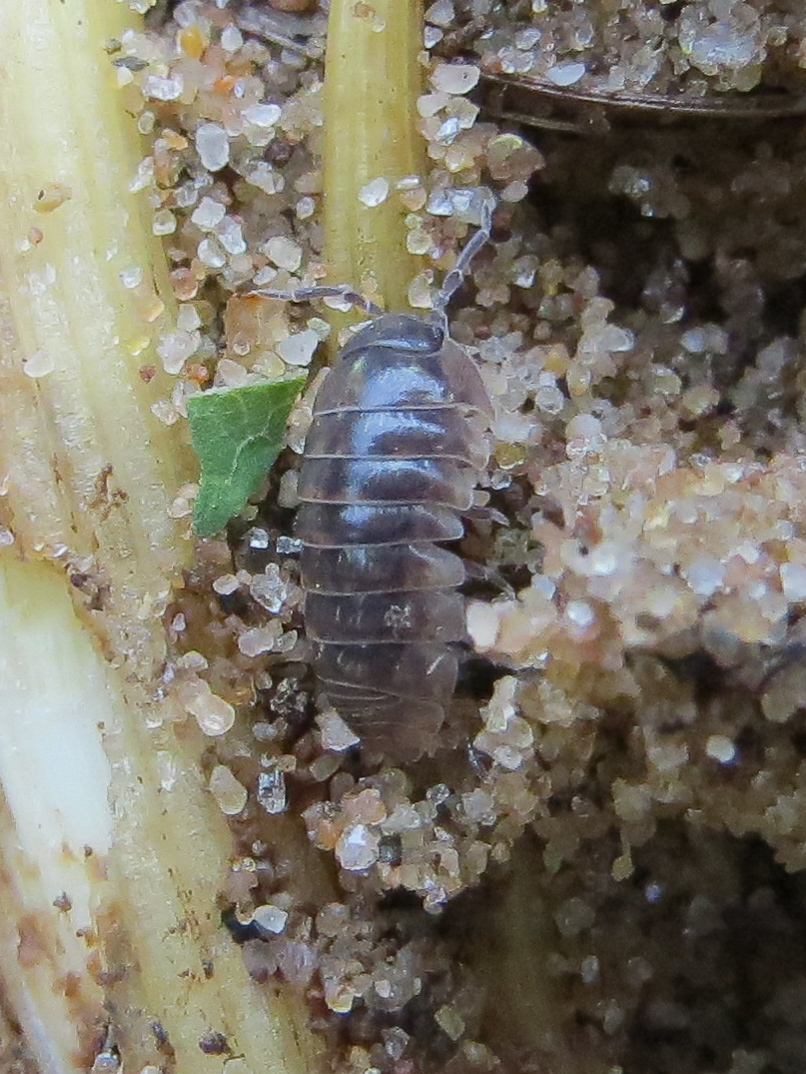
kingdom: Animalia
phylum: Arthropoda
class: Malacostraca
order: Isopoda
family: Armadillidiidae
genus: Armadillidium
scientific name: Armadillidium vulgare
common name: Common pill woodlouse
